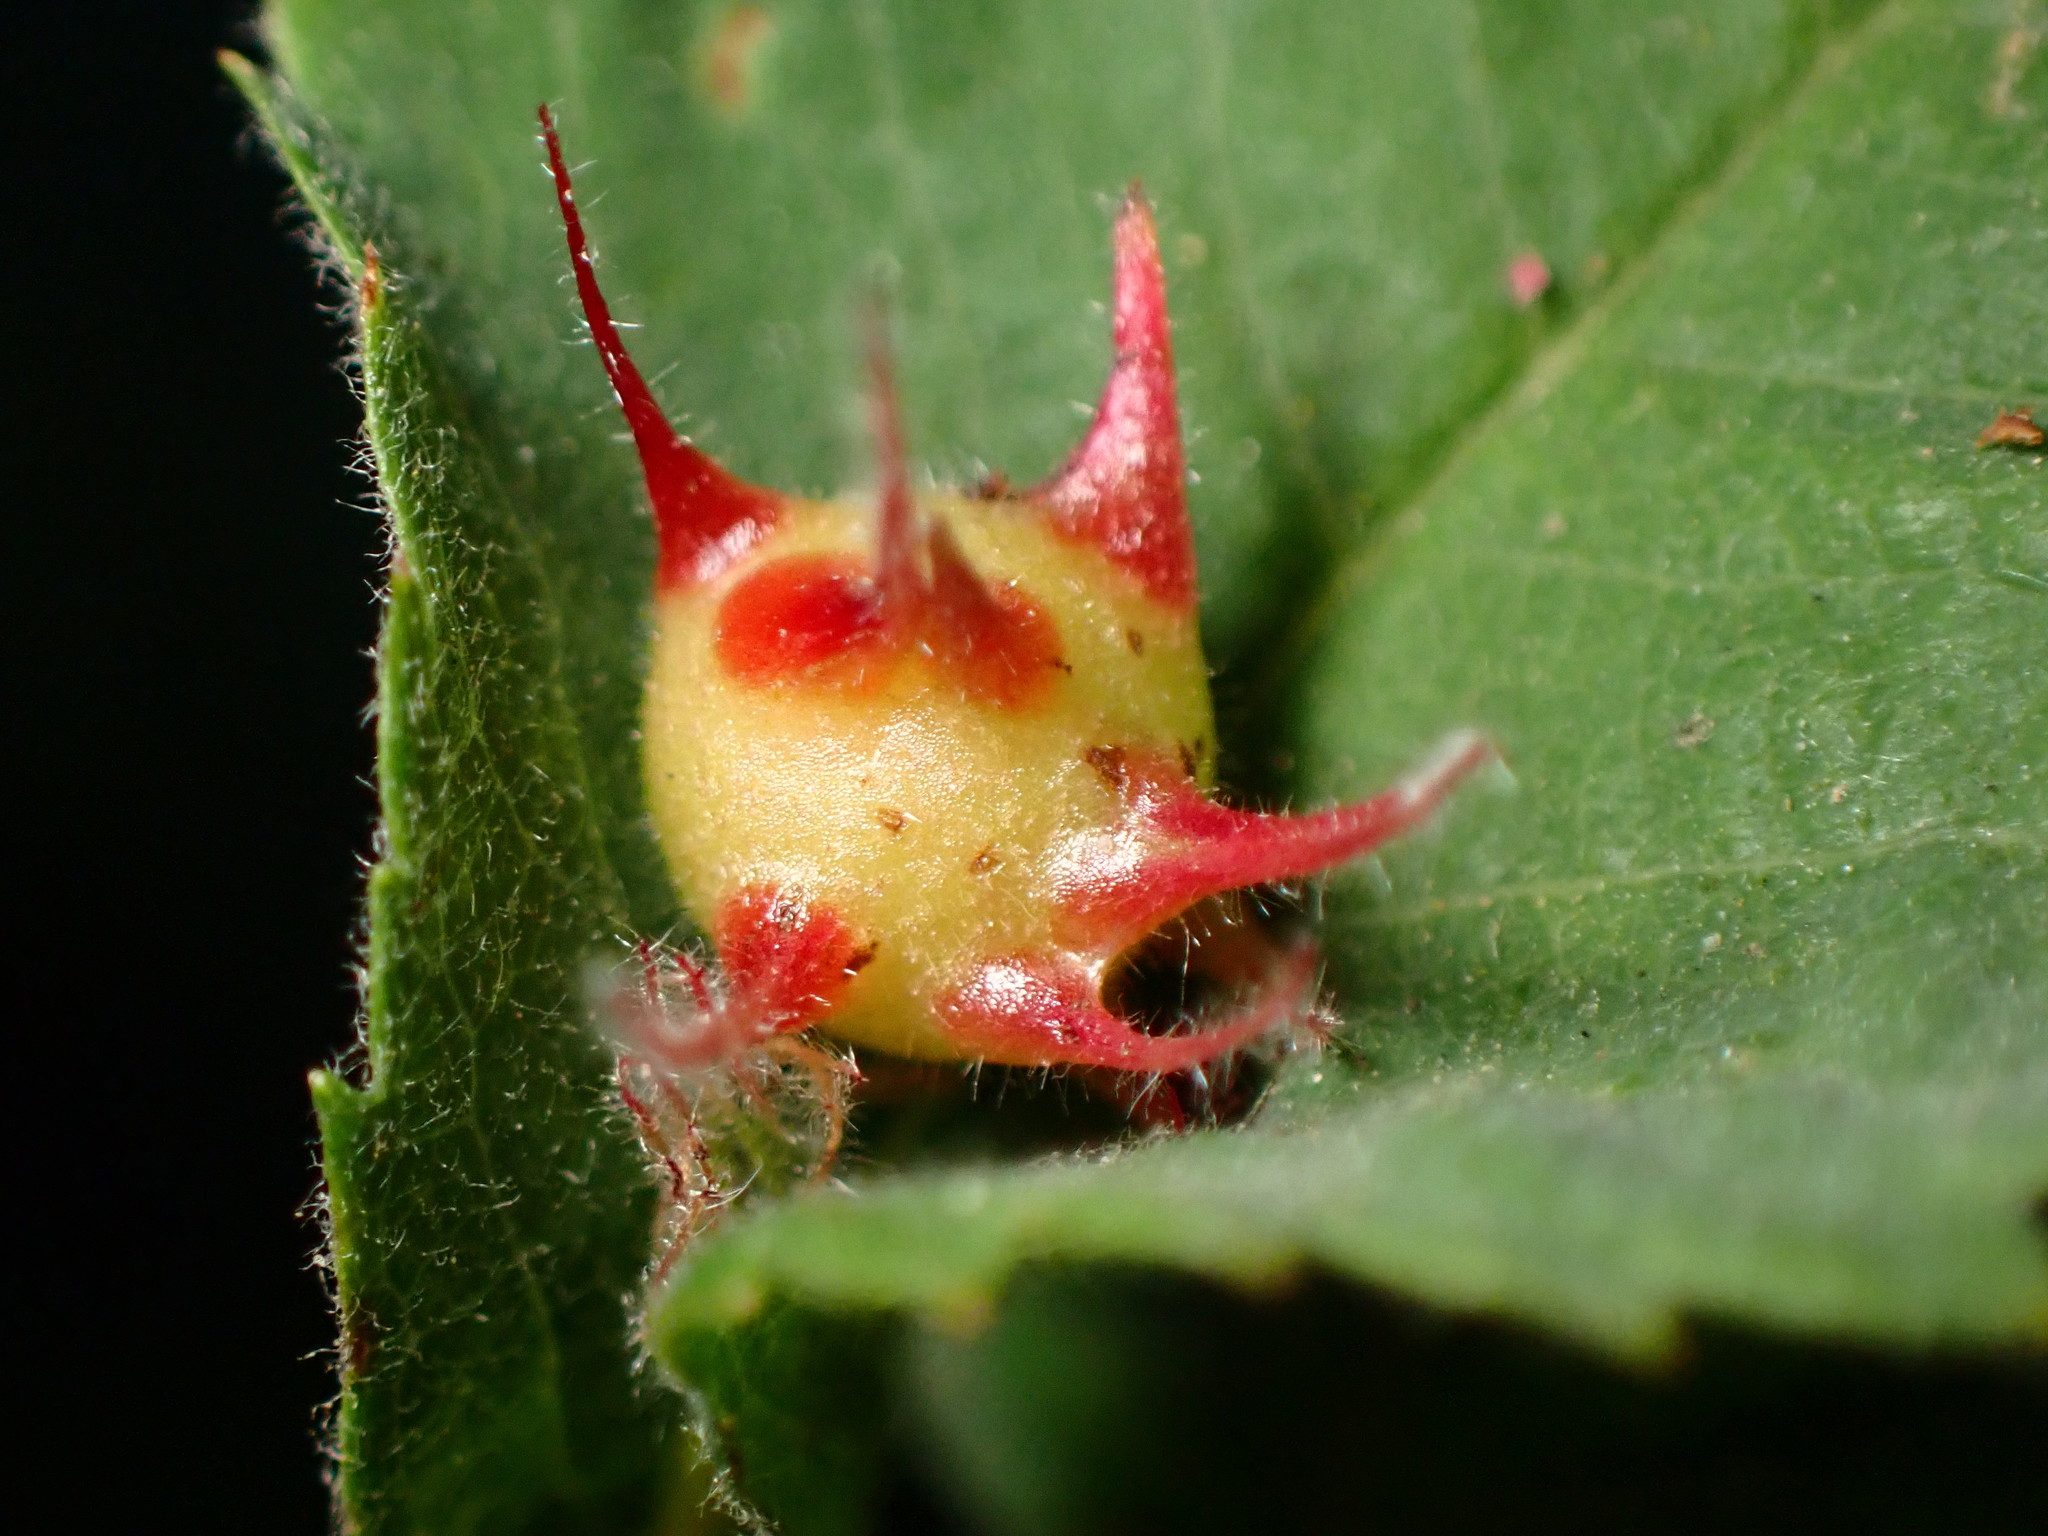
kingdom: Animalia
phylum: Arthropoda
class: Insecta
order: Hymenoptera
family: Cynipidae
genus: Diplolepis
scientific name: Diplolepis polita
